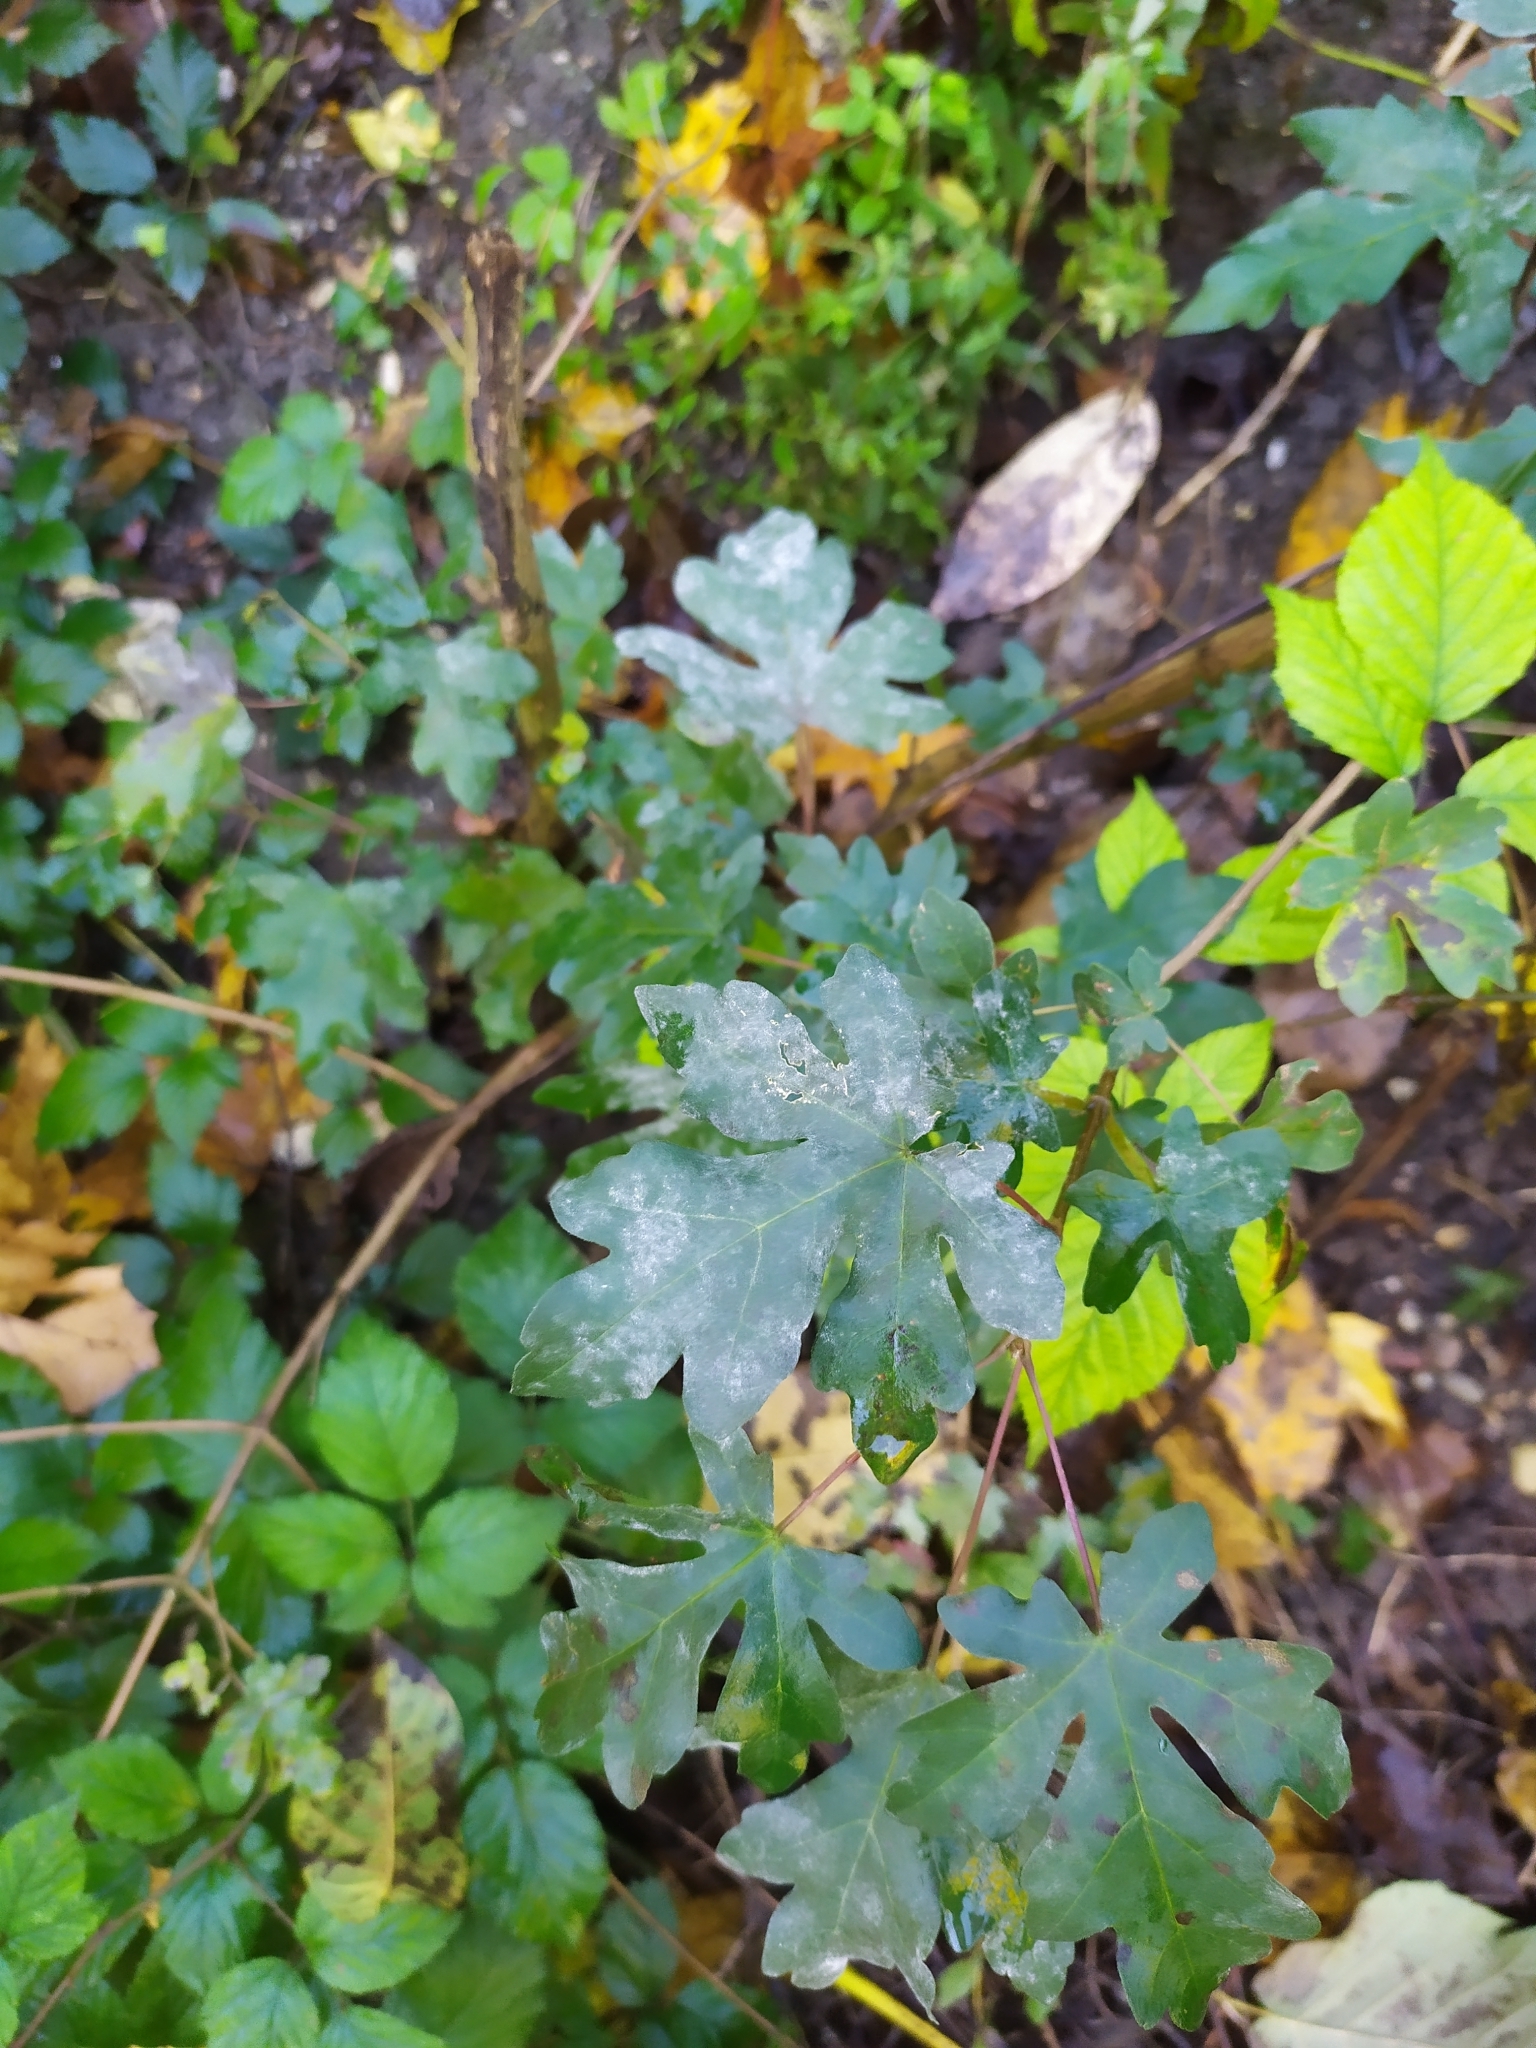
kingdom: Fungi
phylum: Ascomycota
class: Leotiomycetes
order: Helotiales
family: Erysiphaceae
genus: Sawadaea
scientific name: Sawadaea bicornis
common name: Maple mildew
